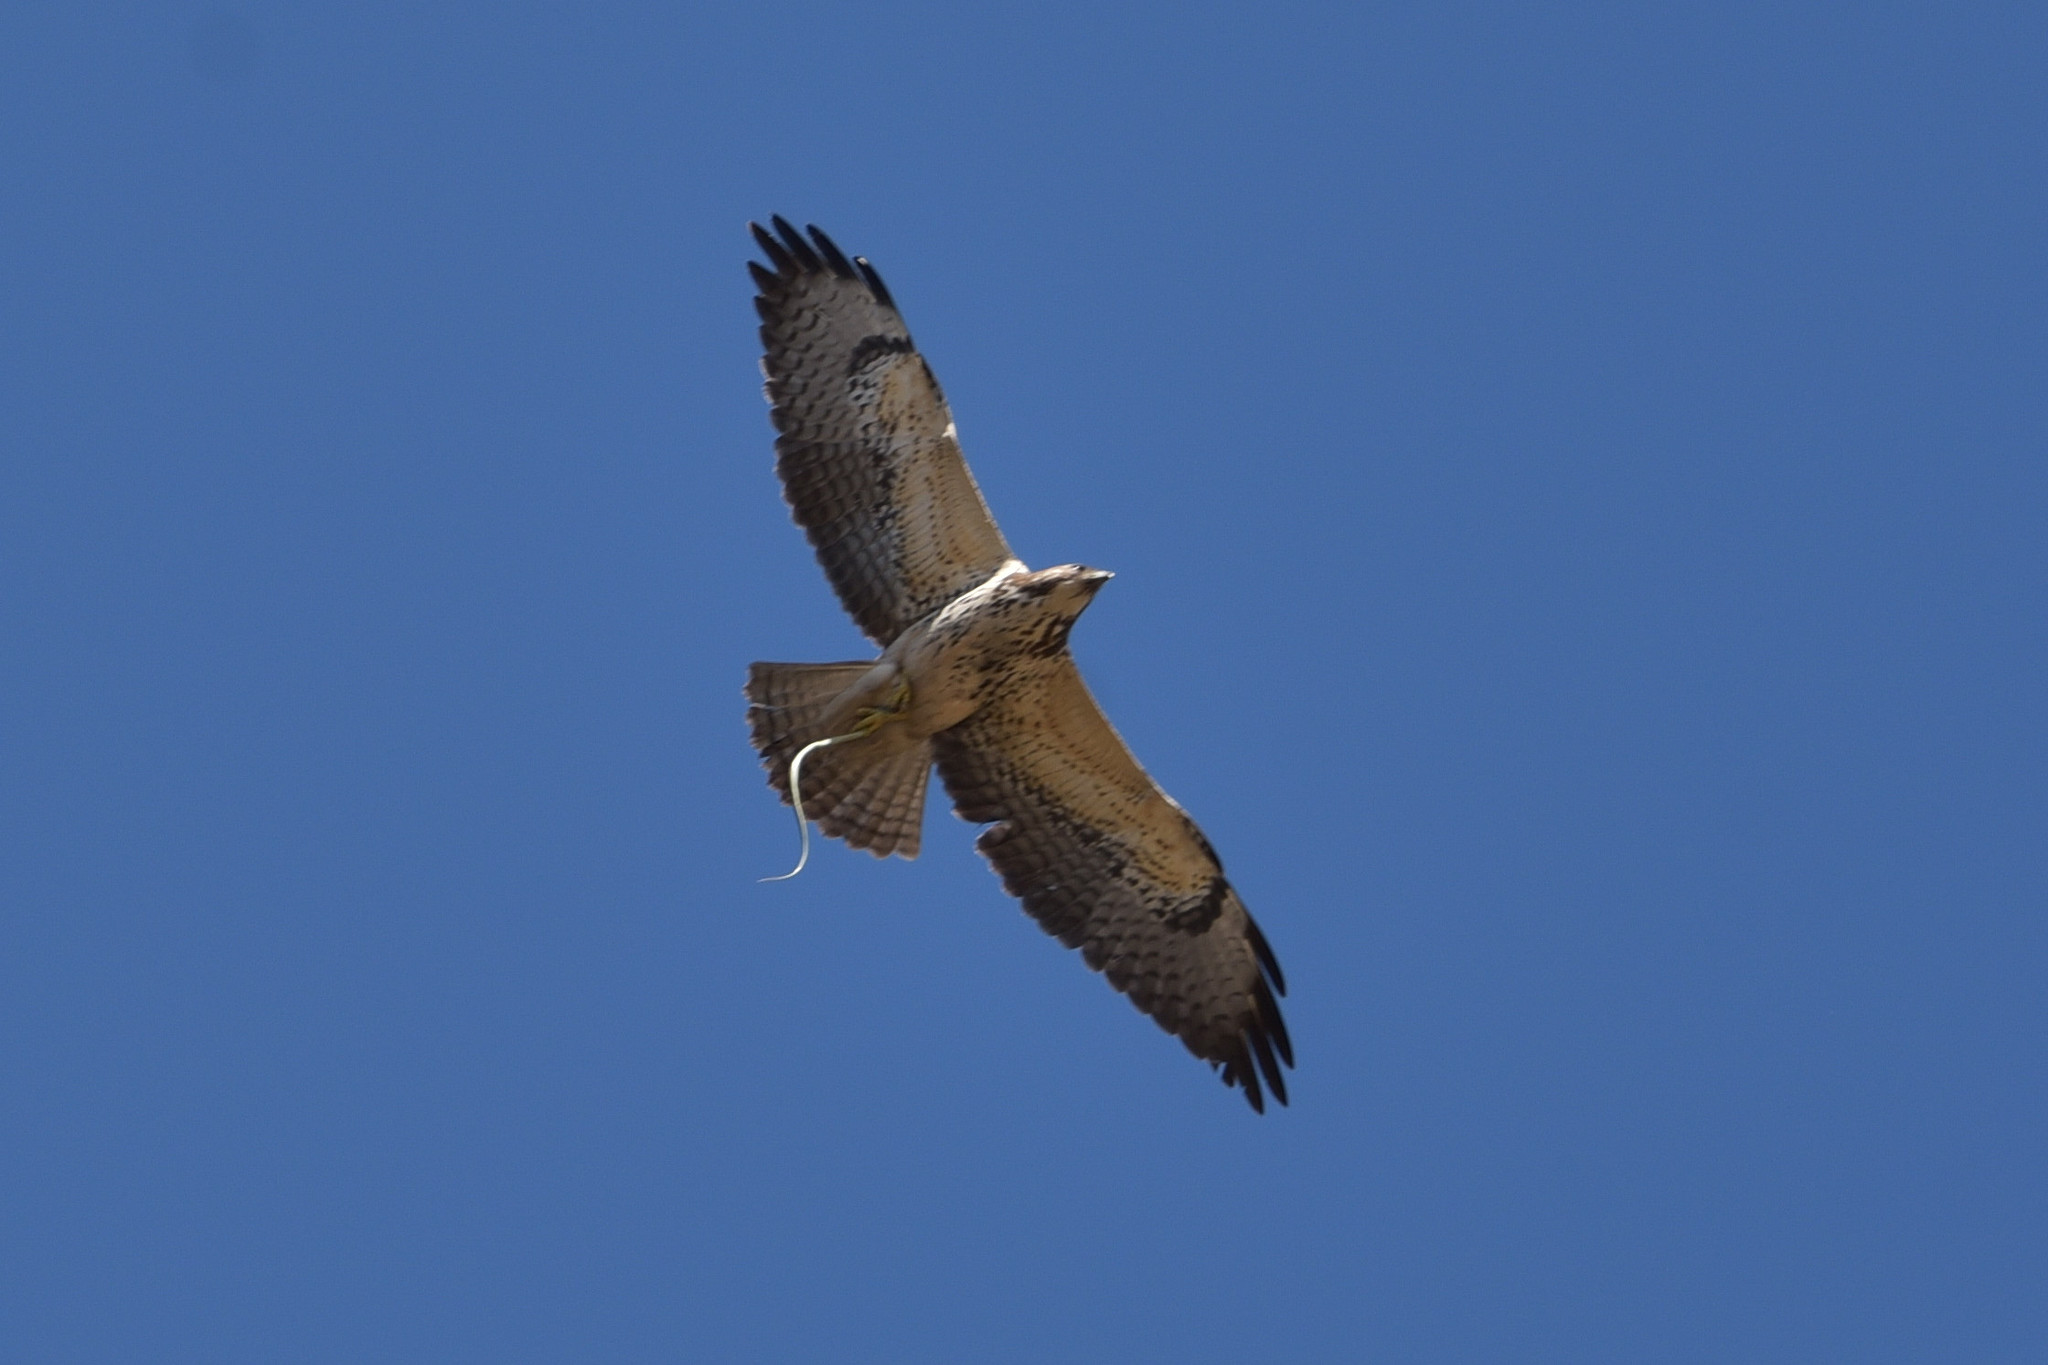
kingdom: Animalia
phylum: Chordata
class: Aves
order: Accipitriformes
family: Accipitridae
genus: Buteo
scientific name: Buteo swainsoni
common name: Swainson's hawk
